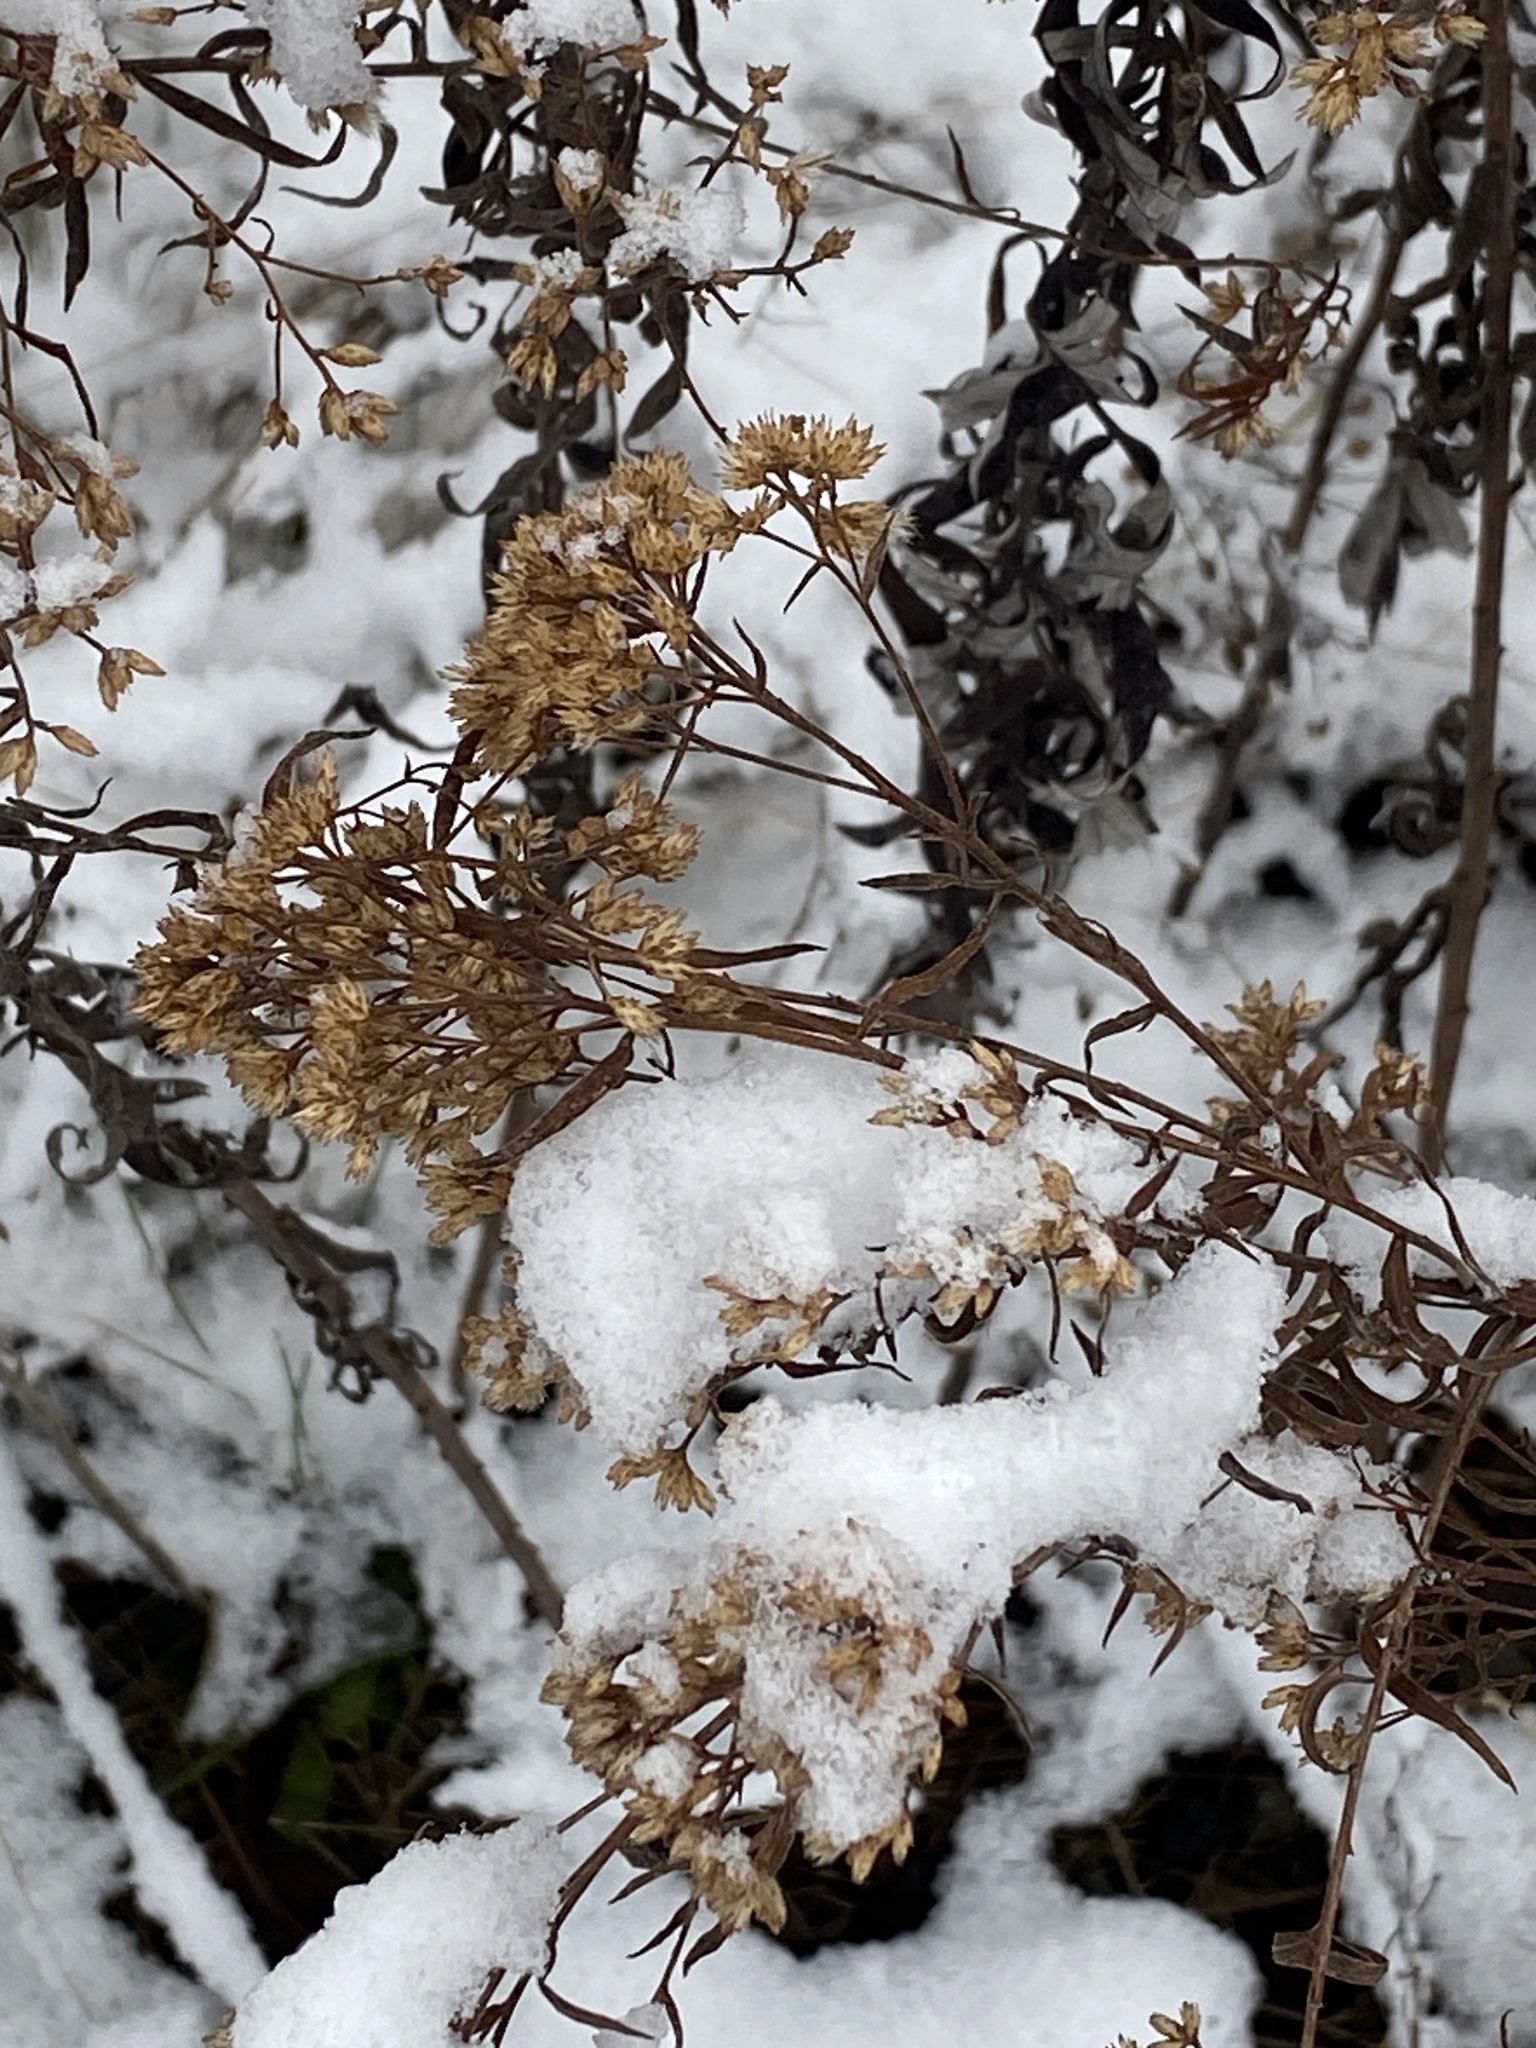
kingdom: Plantae
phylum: Tracheophyta
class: Magnoliopsida
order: Asterales
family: Asteraceae
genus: Euthamia
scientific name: Euthamia graminifolia
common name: Common goldentop
